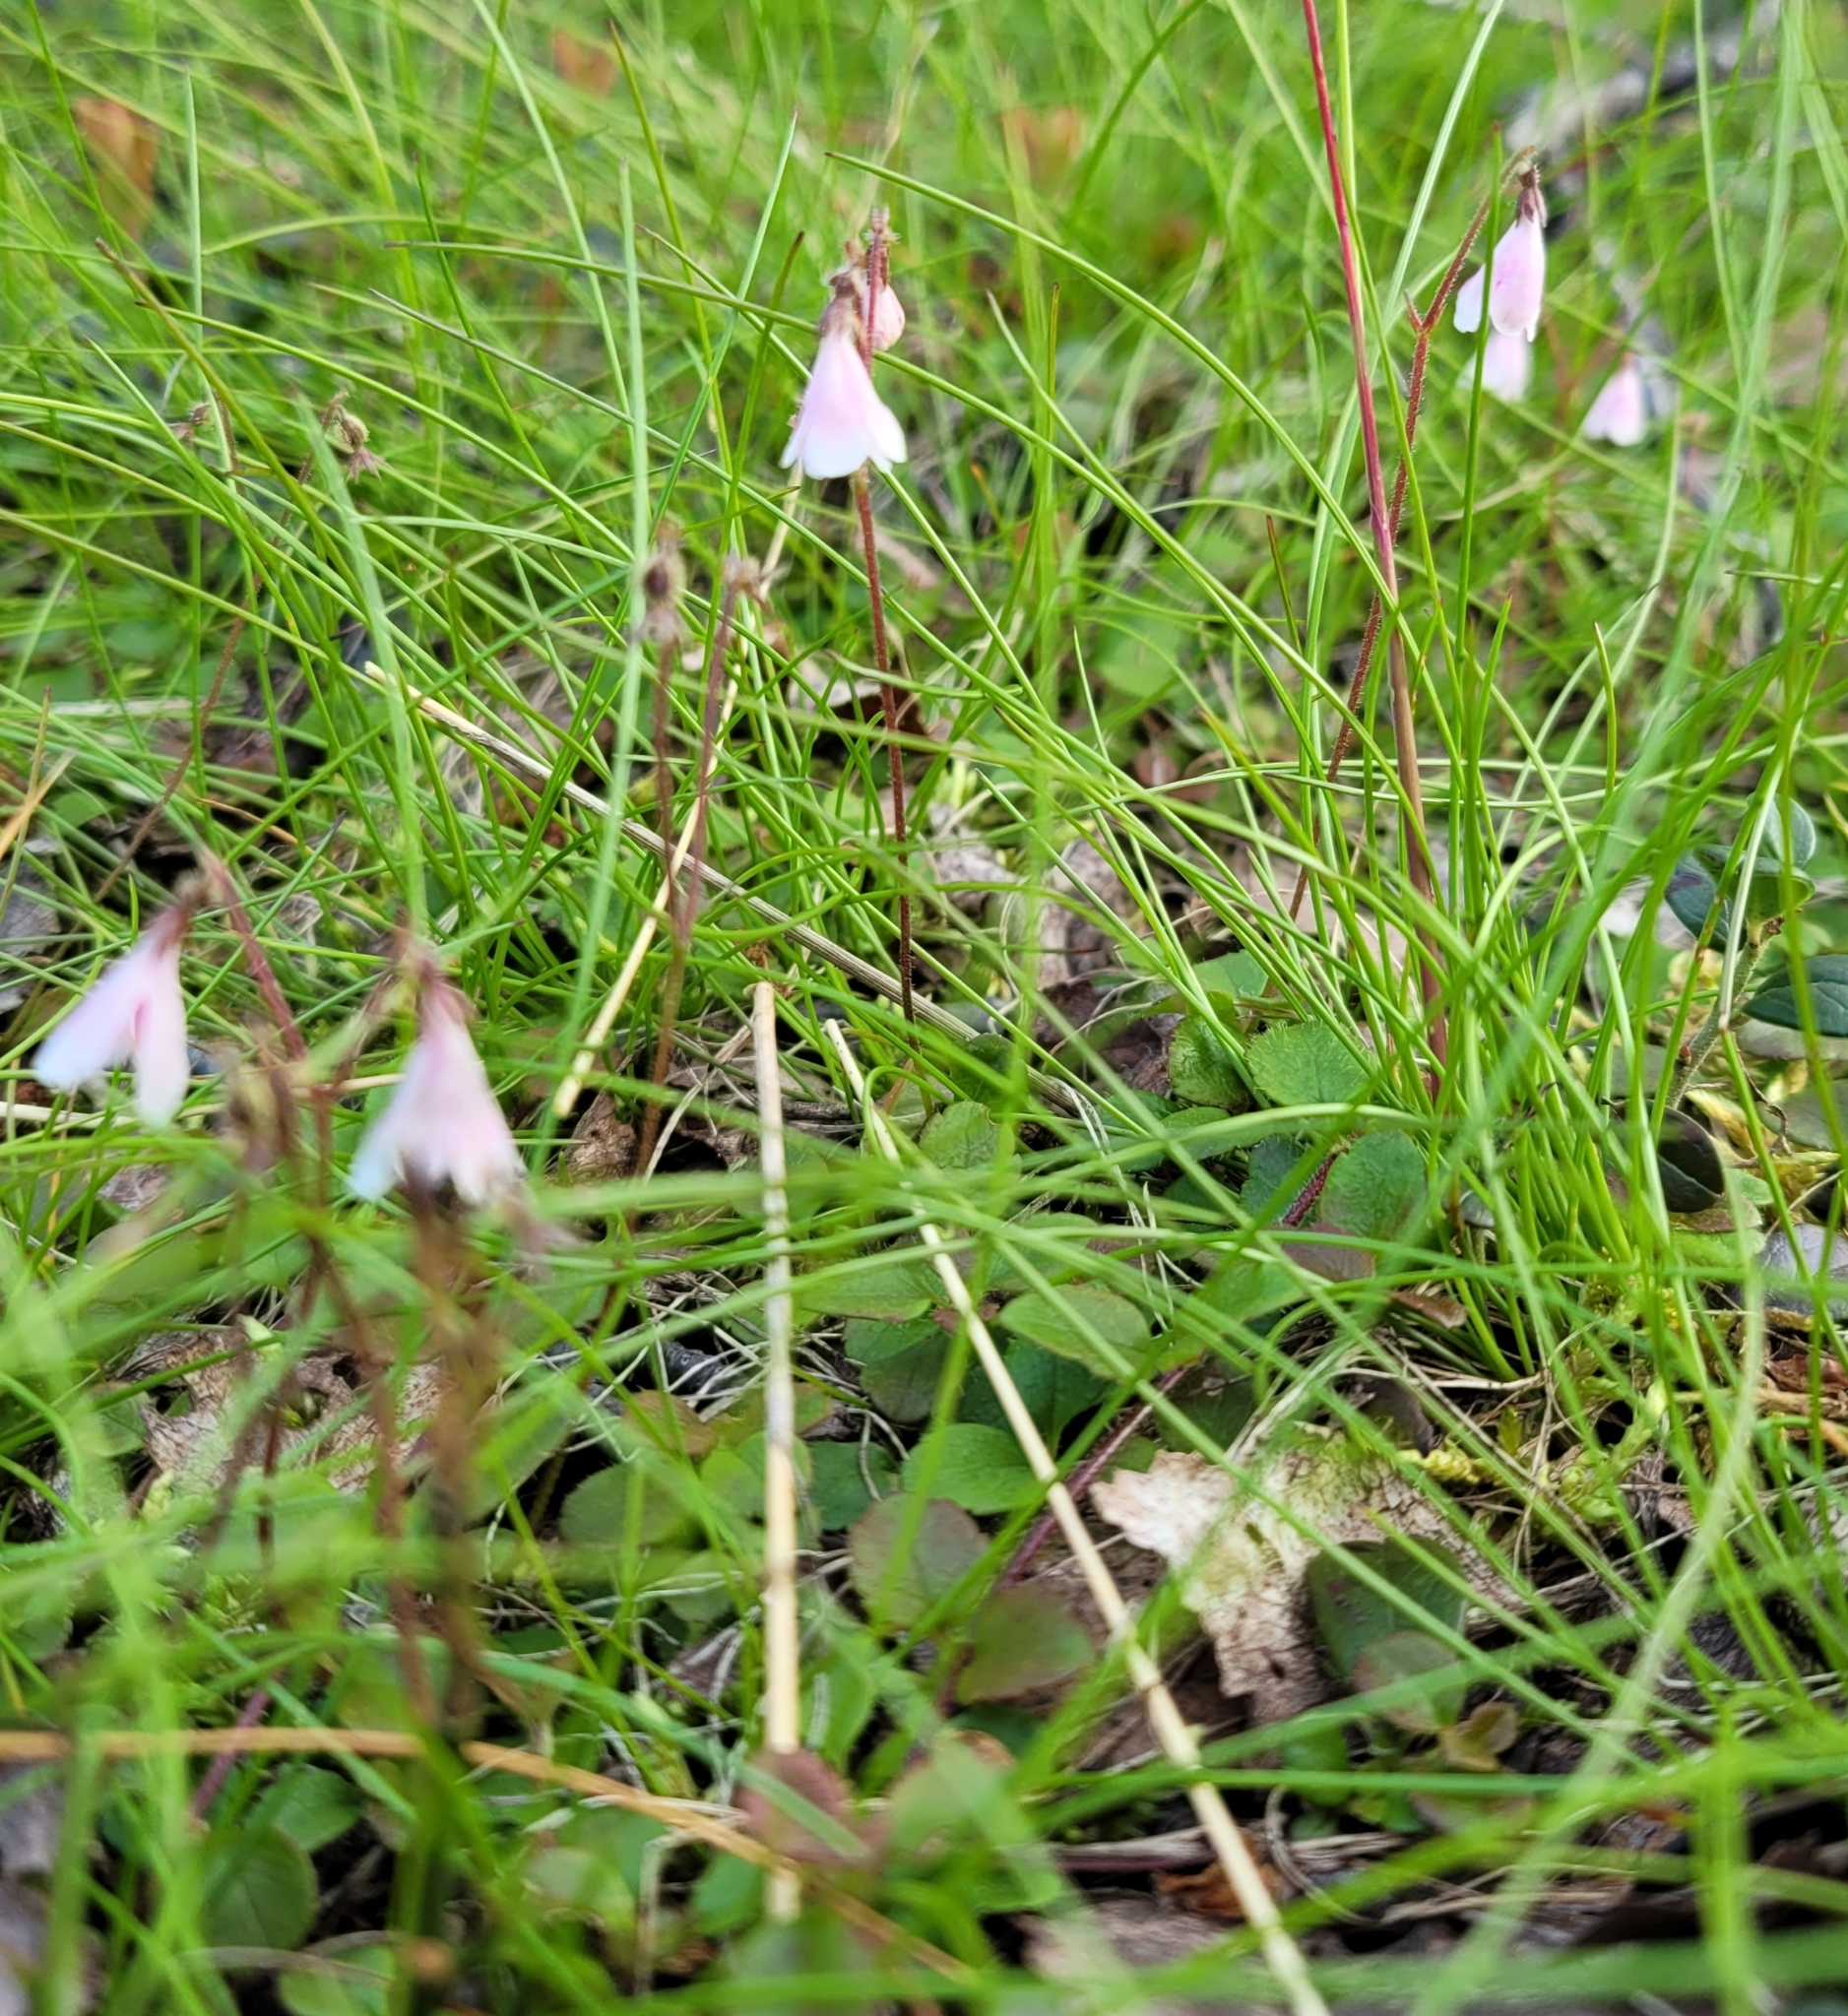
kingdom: Plantae
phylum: Tracheophyta
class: Magnoliopsida
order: Dipsacales
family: Caprifoliaceae
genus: Linnaea
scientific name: Linnaea borealis
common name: Twinflower
